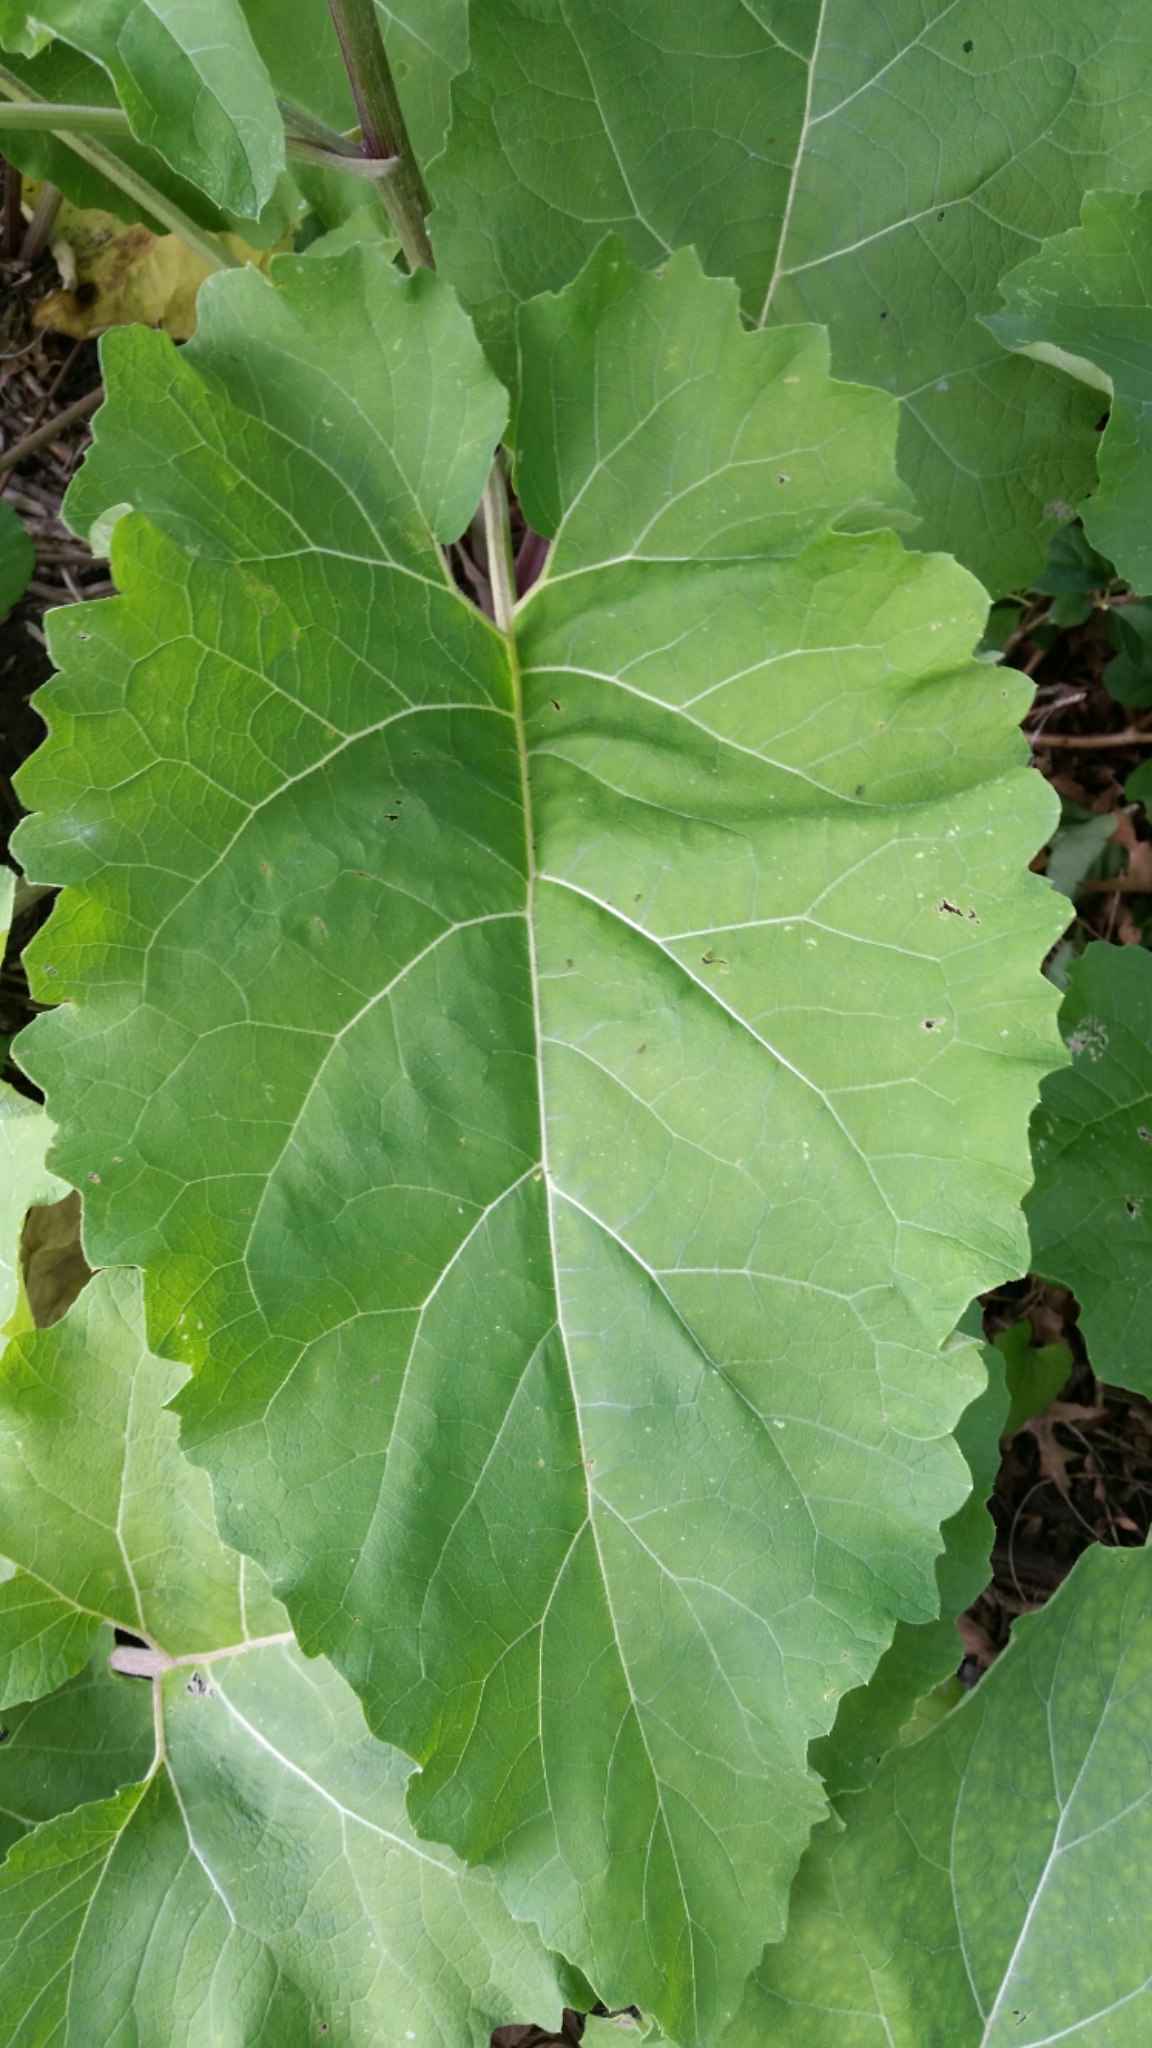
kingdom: Plantae
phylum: Tracheophyta
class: Magnoliopsida
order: Asterales
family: Asteraceae
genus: Arctium
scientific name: Arctium
